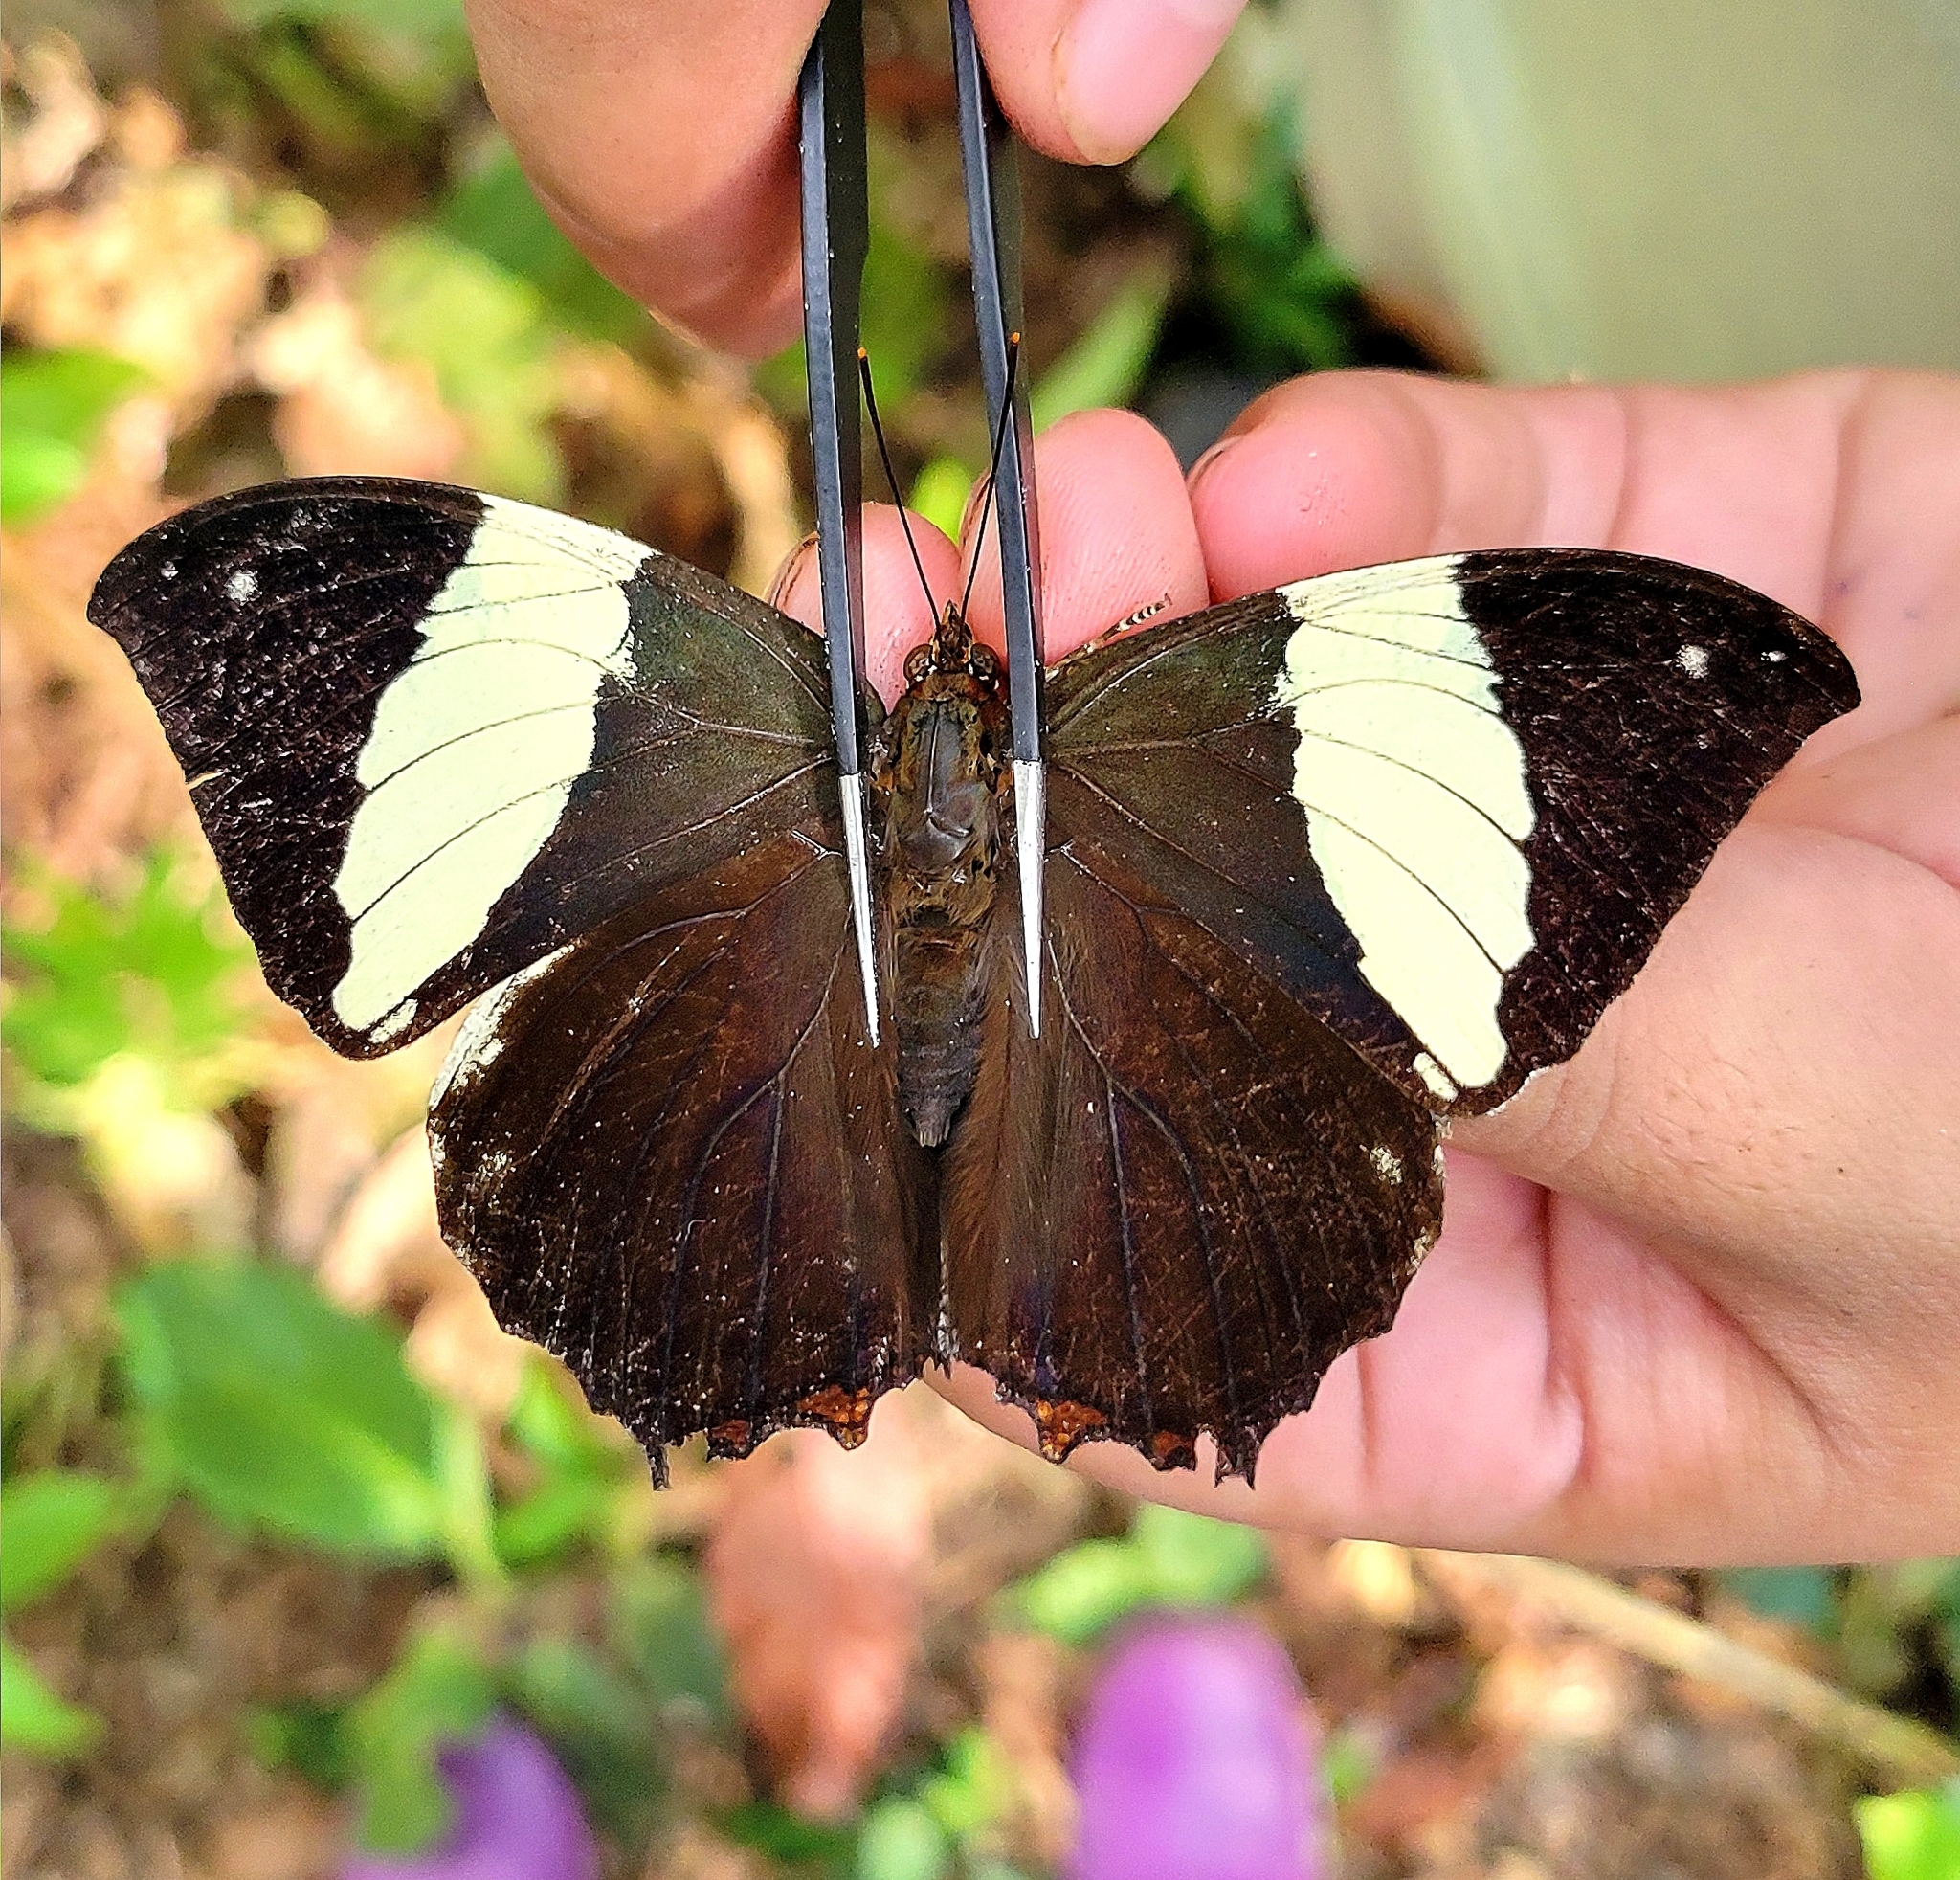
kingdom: Animalia
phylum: Arthropoda
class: Insecta
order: Lepidoptera
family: Nymphalidae
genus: Hypna
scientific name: Hypna clytemnestra
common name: Silver-studded leafwing
